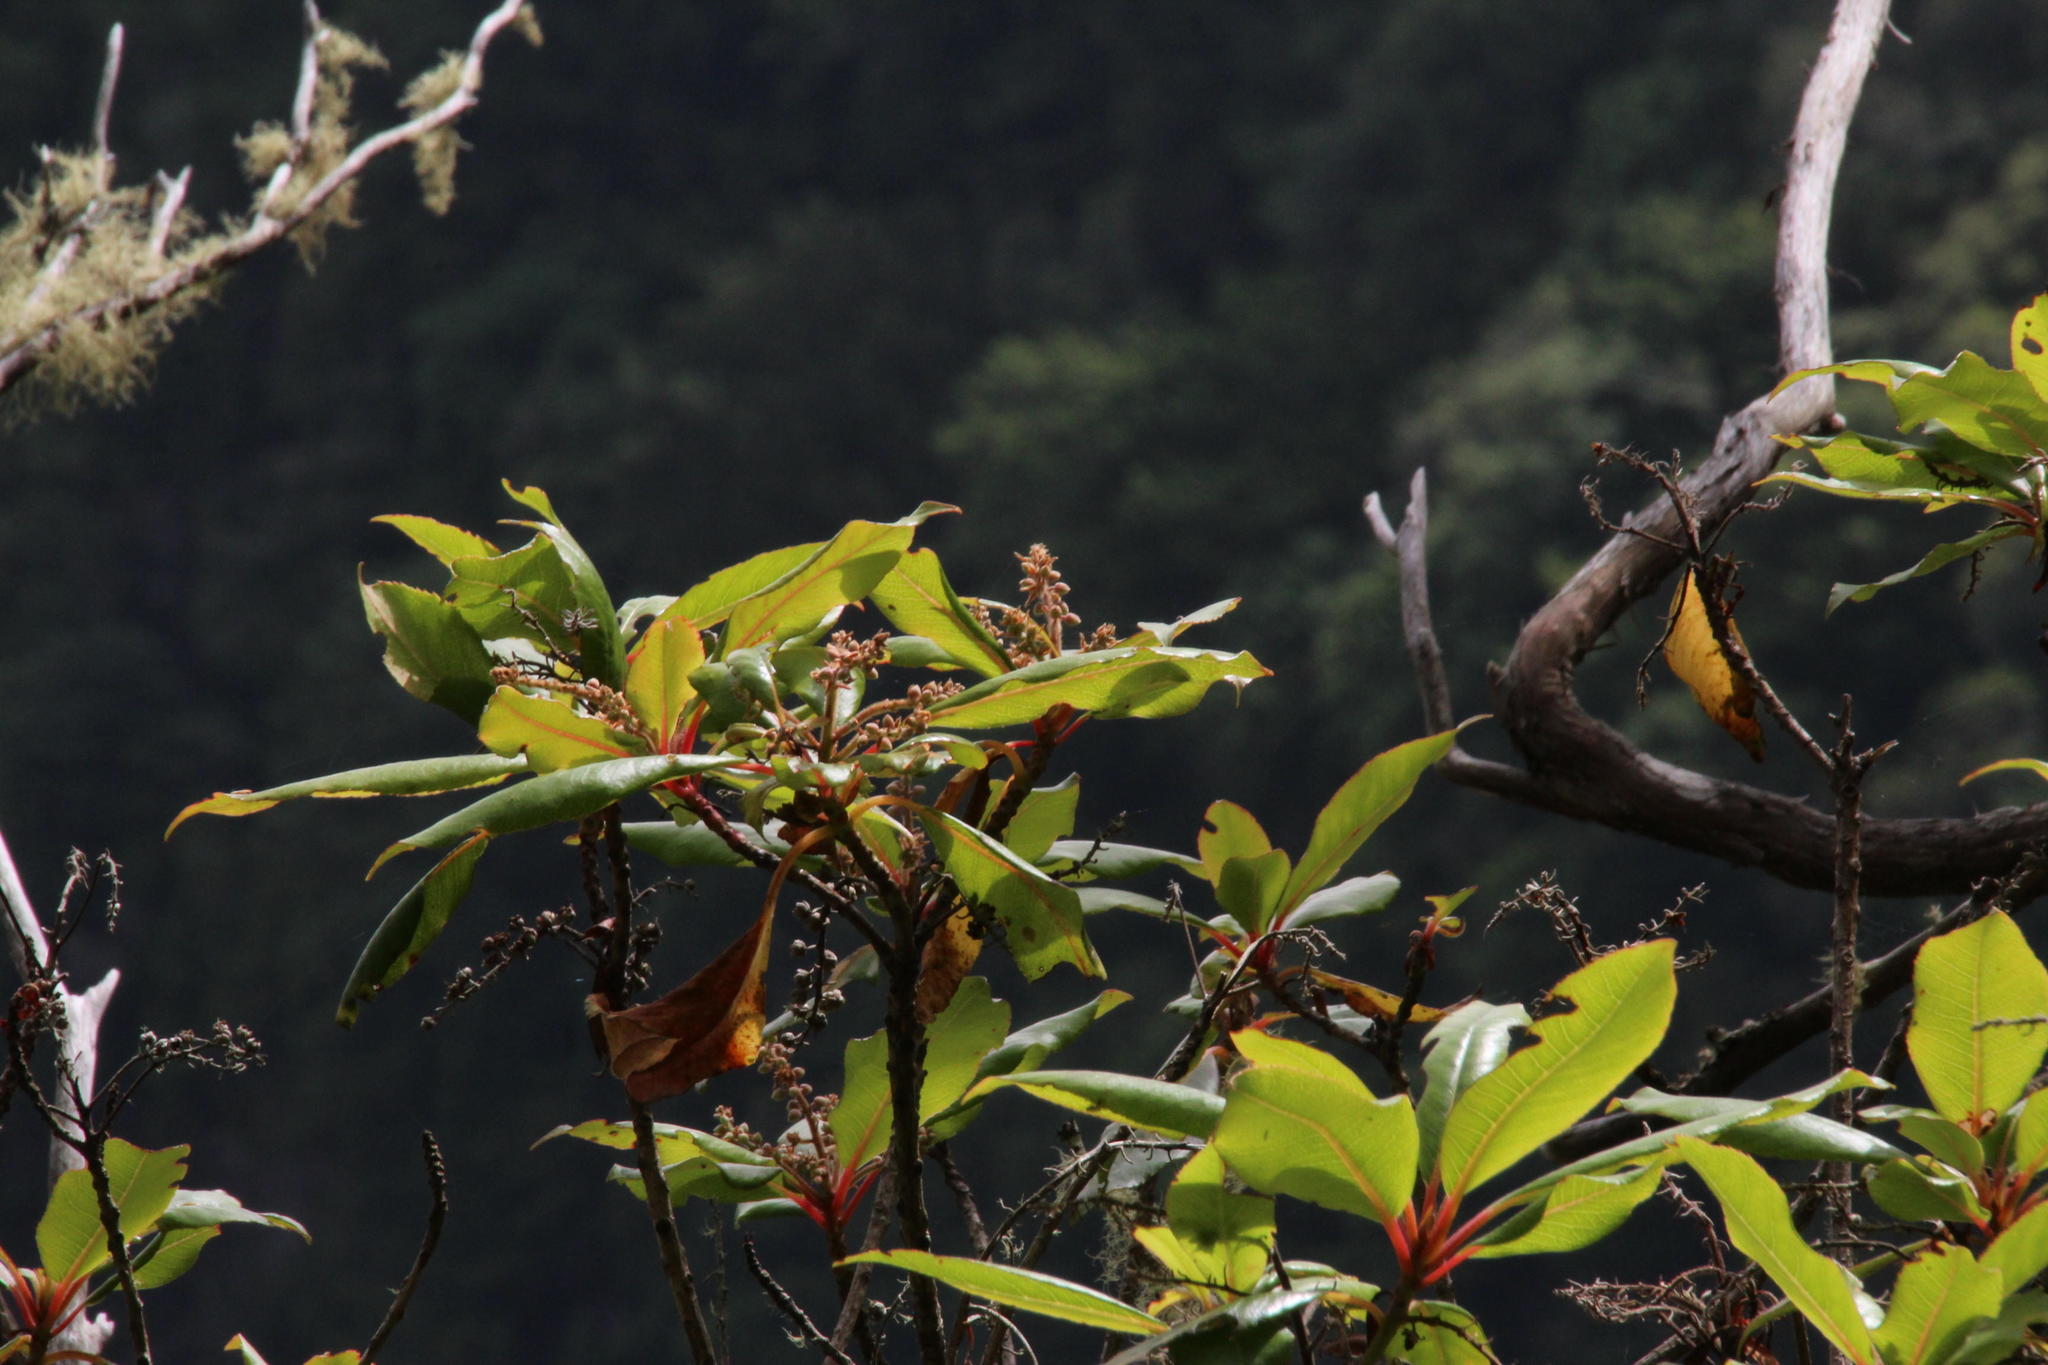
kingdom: Plantae
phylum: Tracheophyta
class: Magnoliopsida
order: Ericales
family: Clethraceae
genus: Clethra
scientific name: Clethra arborea
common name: Lily-of-the-valley-tree
